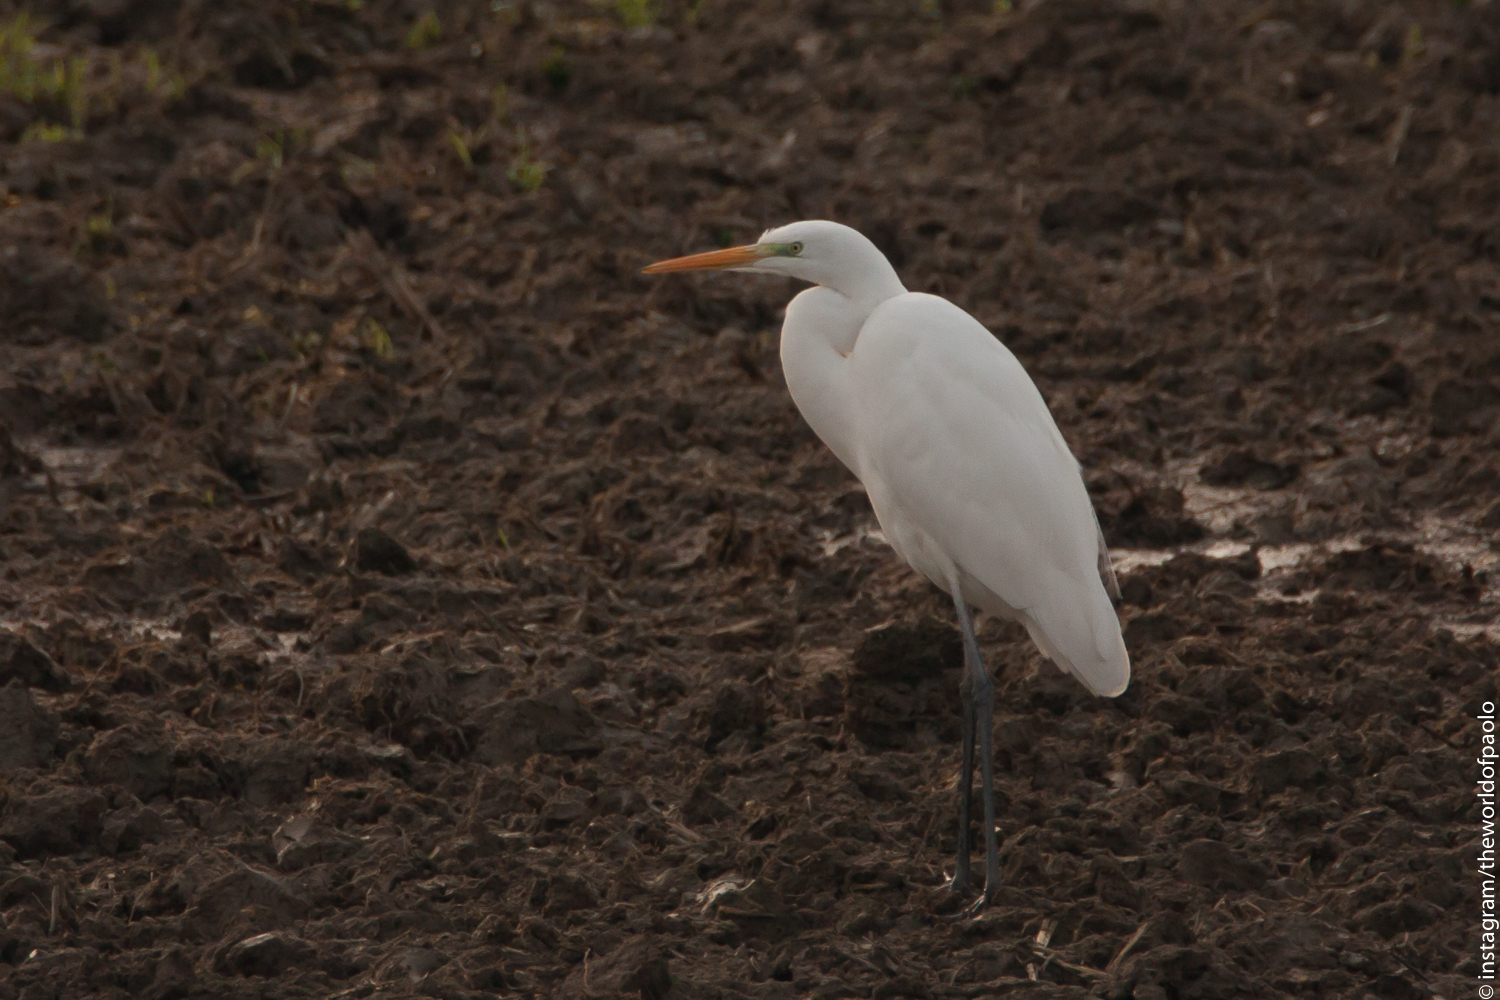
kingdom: Animalia
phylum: Chordata
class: Aves
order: Pelecaniformes
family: Ardeidae
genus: Ardea
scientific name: Ardea alba
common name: Great egret
